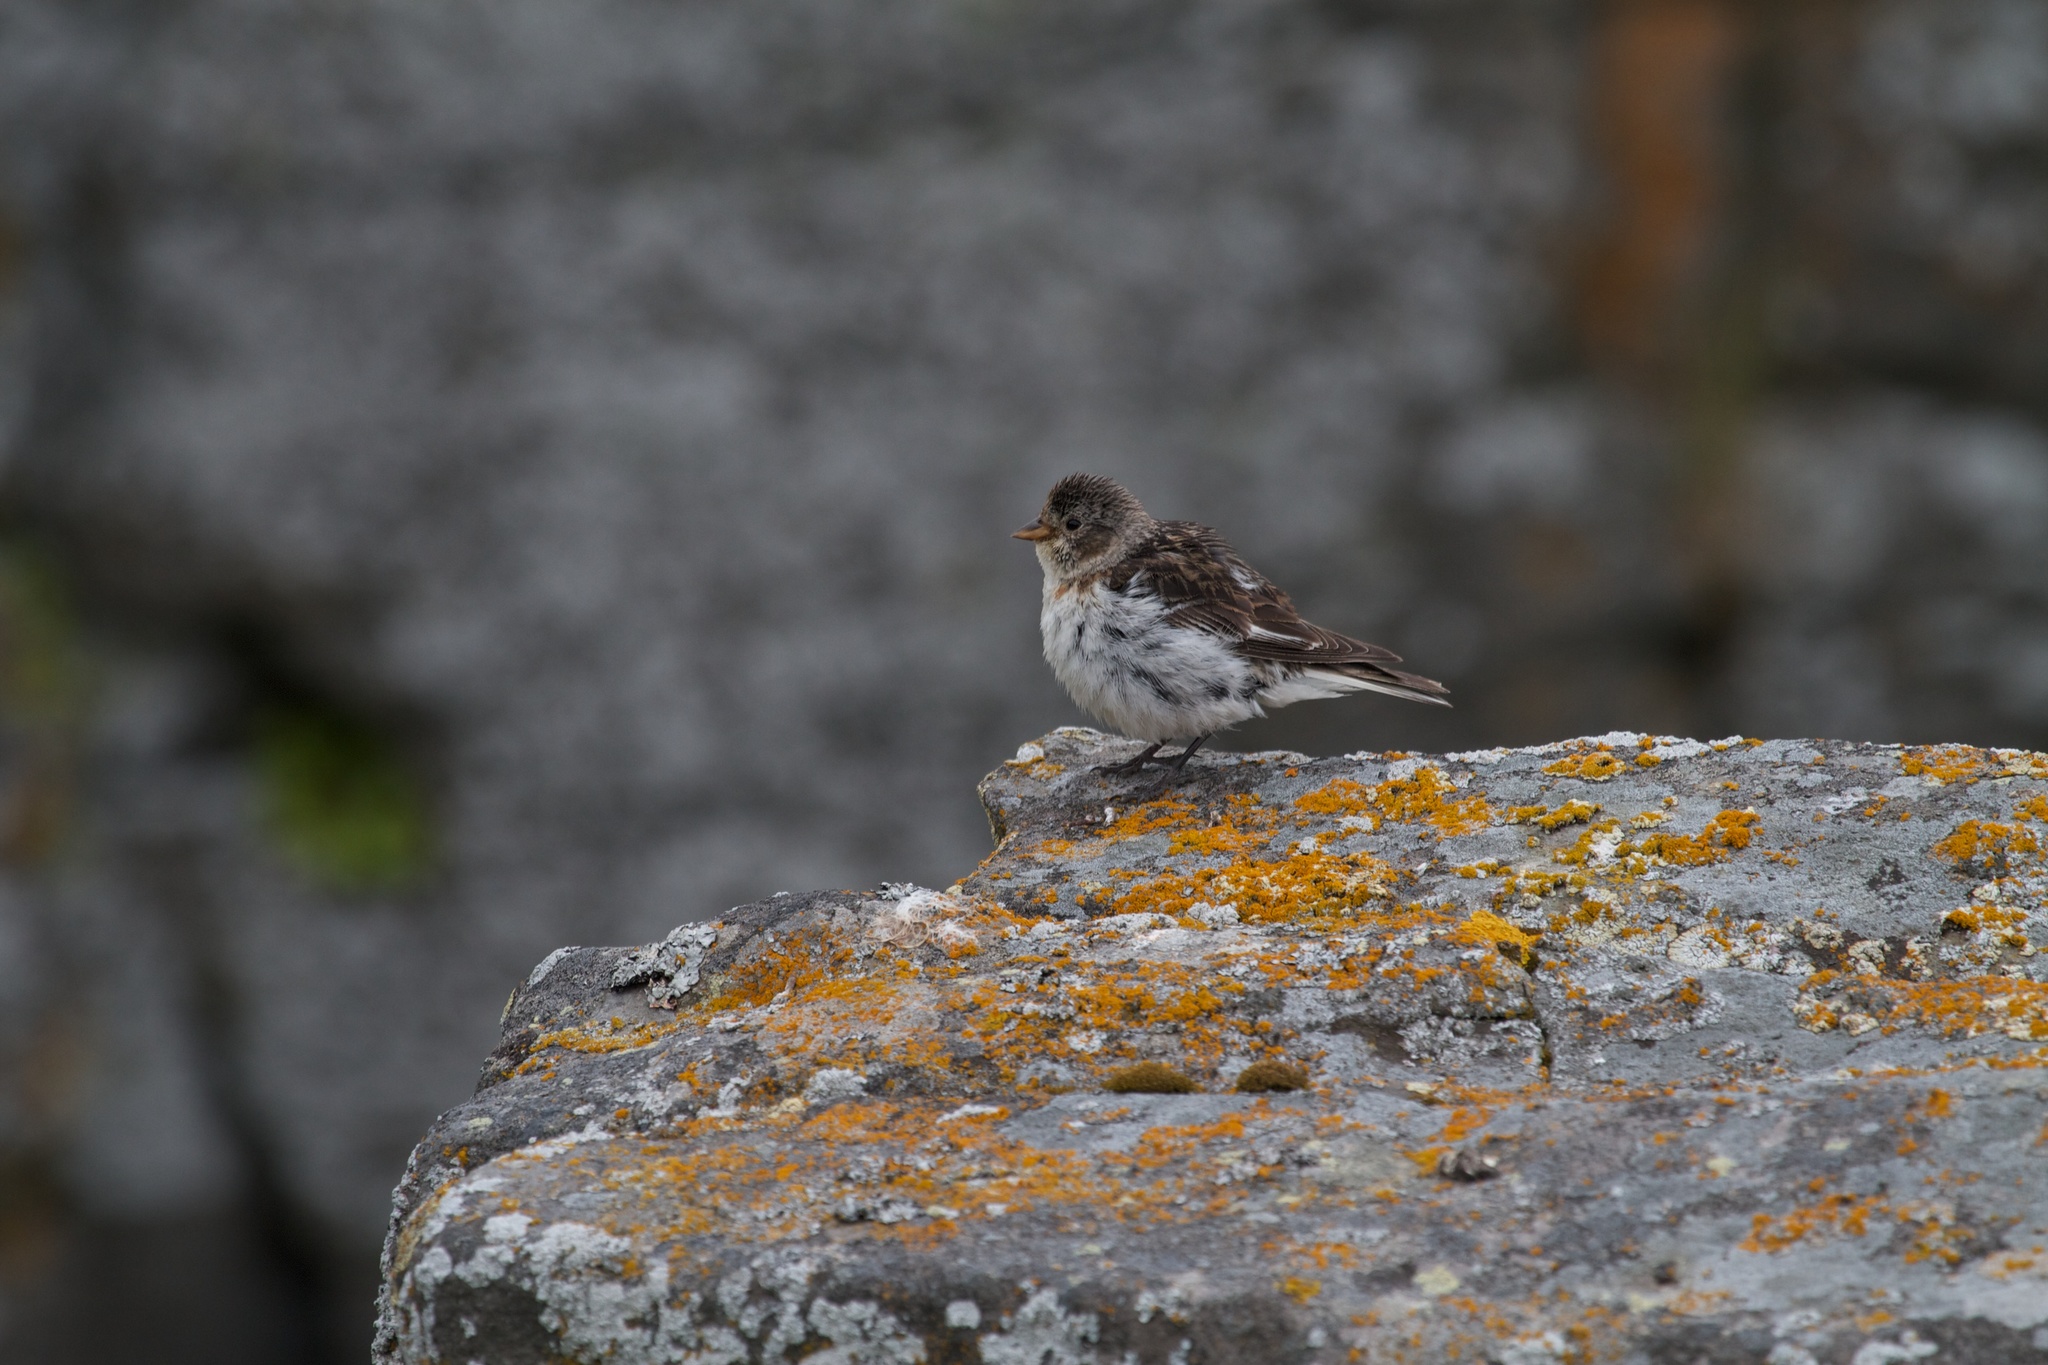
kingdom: Animalia
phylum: Chordata
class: Aves
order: Passeriformes
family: Calcariidae
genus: Plectrophenax
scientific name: Plectrophenax nivalis
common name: Snow bunting
